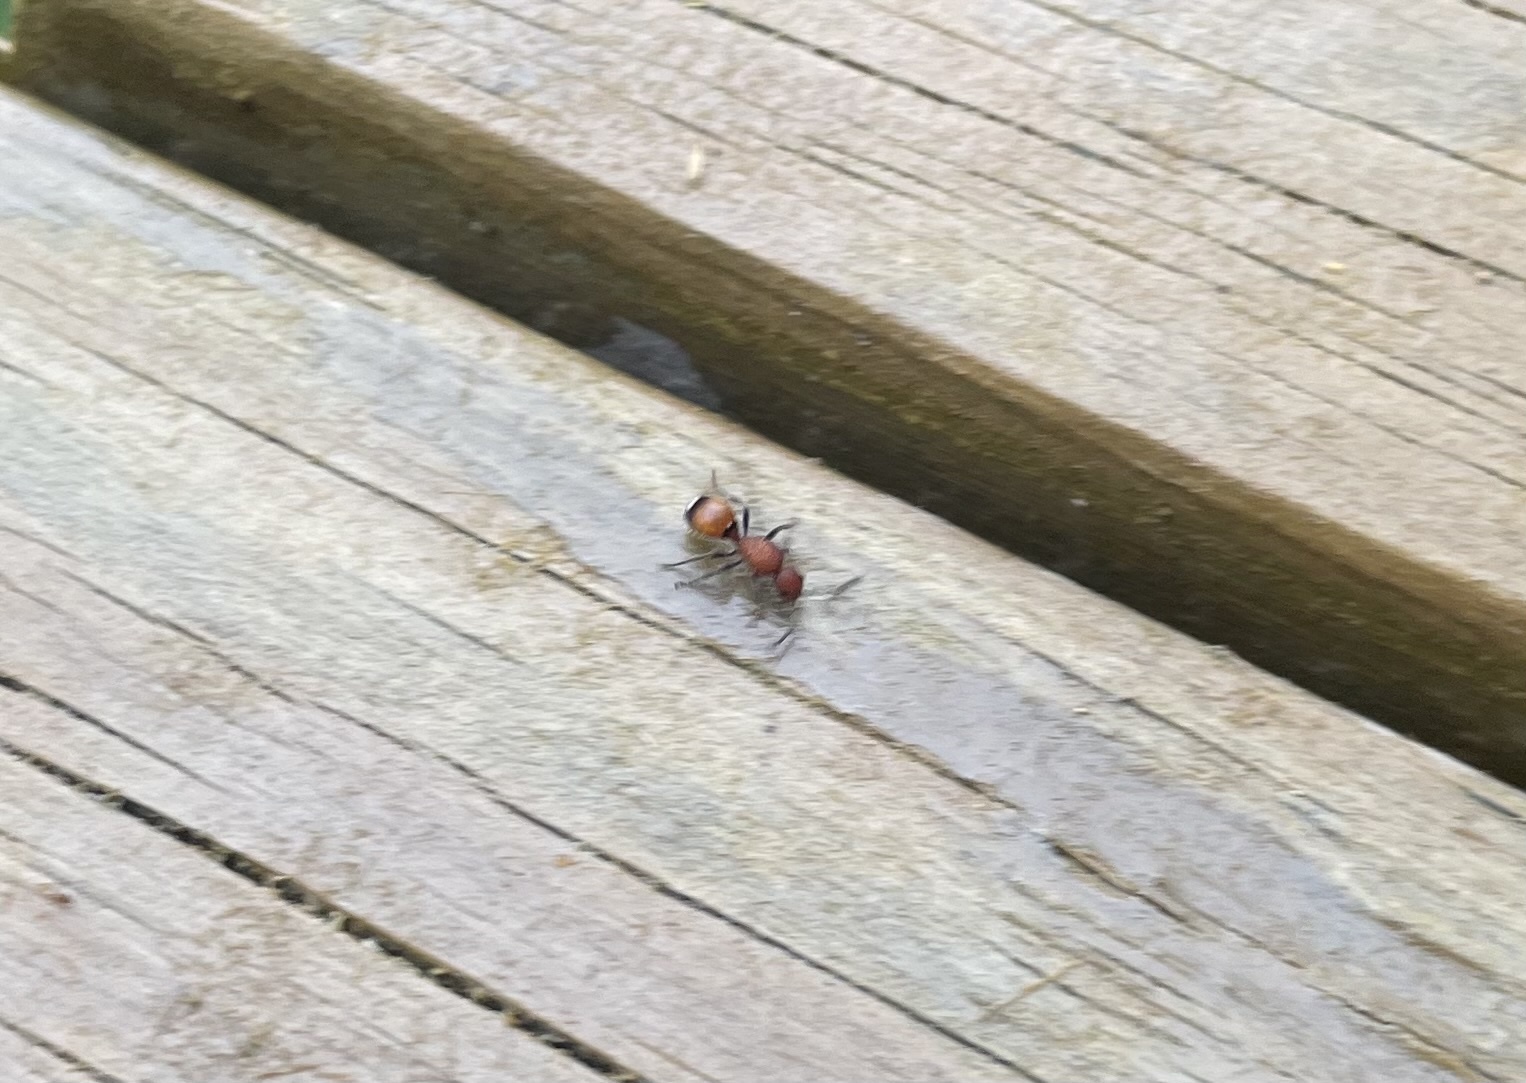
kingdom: Animalia
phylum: Arthropoda
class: Insecta
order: Hymenoptera
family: Mutillidae
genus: Sphaeropthalma
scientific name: Sphaeropthalma
